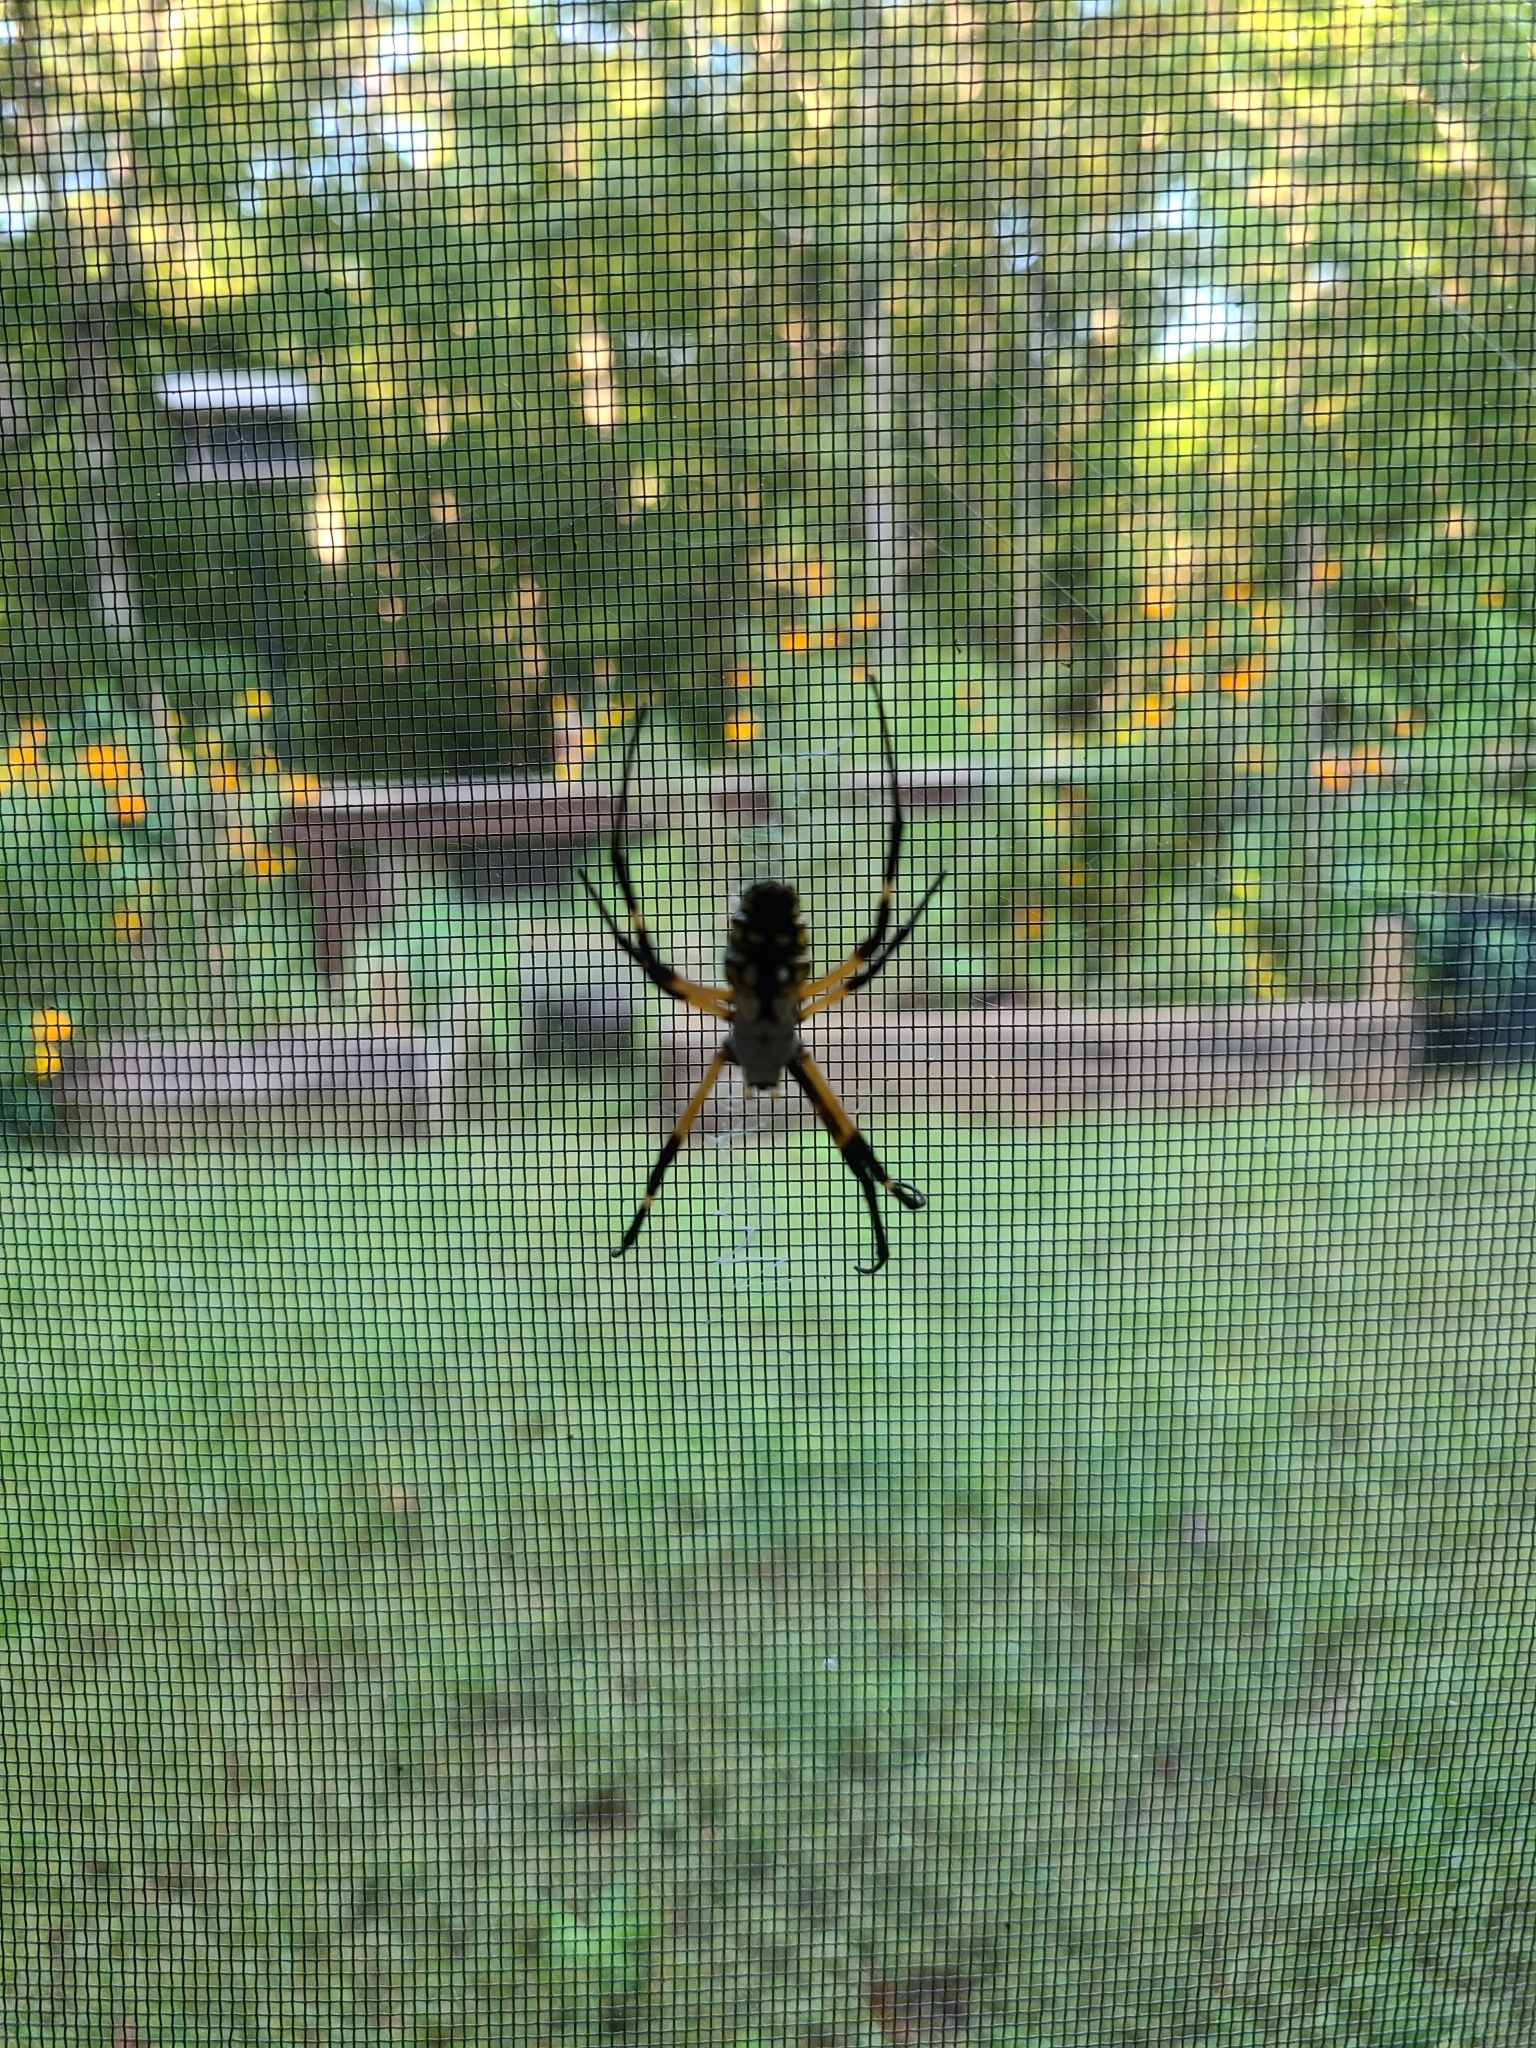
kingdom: Animalia
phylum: Arthropoda
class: Arachnida
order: Araneae
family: Araneidae
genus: Argiope
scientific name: Argiope aurantia
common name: Orb weavers
